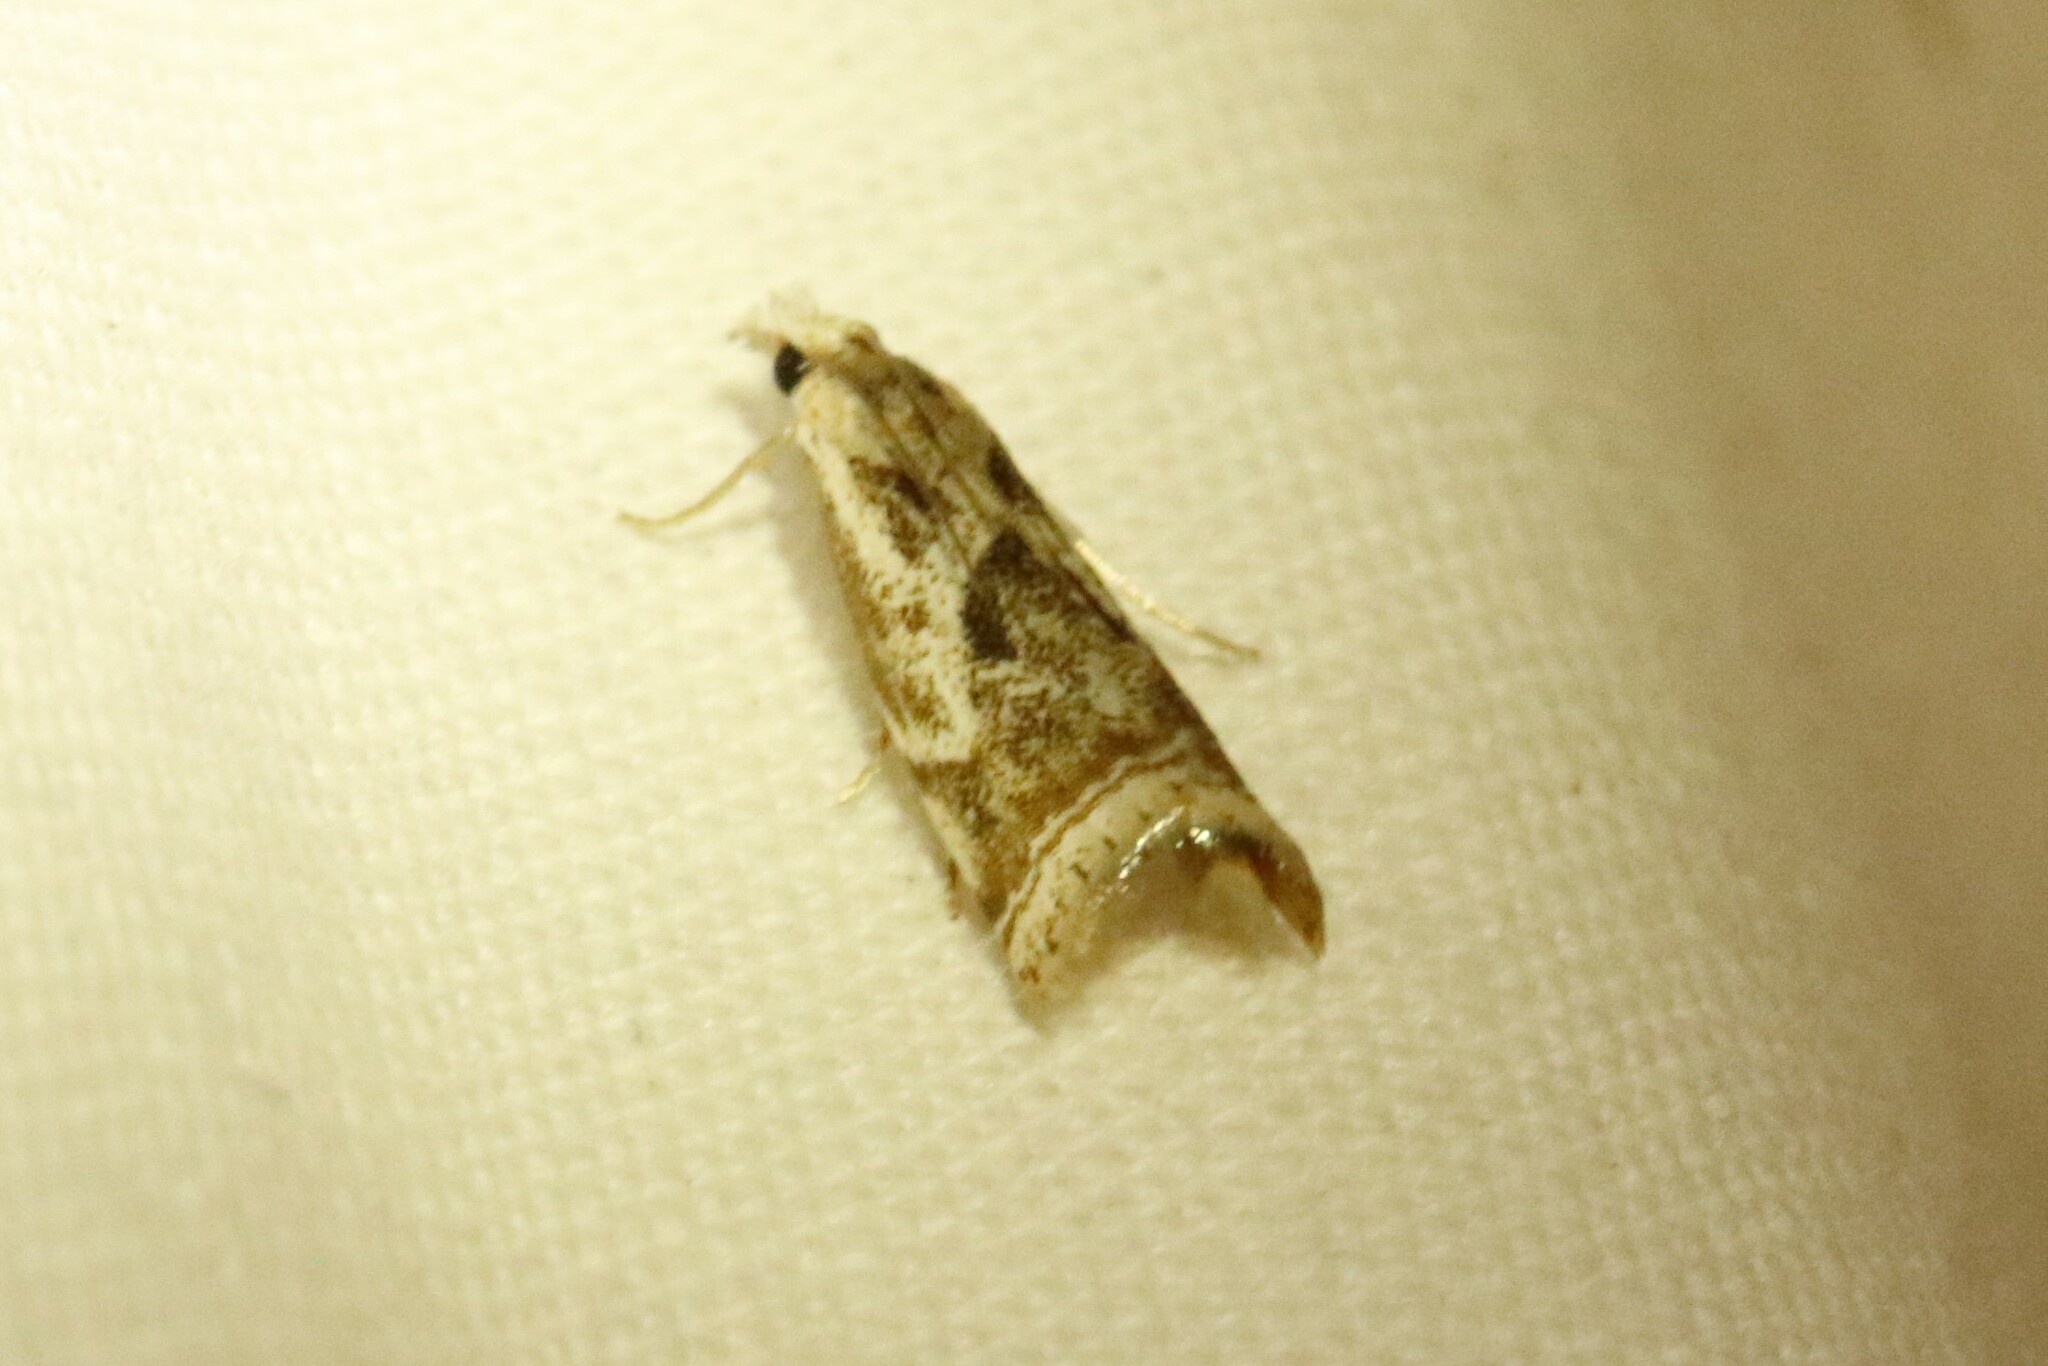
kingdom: Animalia
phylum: Arthropoda
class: Insecta
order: Lepidoptera
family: Crambidae
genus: Microcrambus
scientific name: Microcrambus elegans
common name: Elegant grass-veneer
